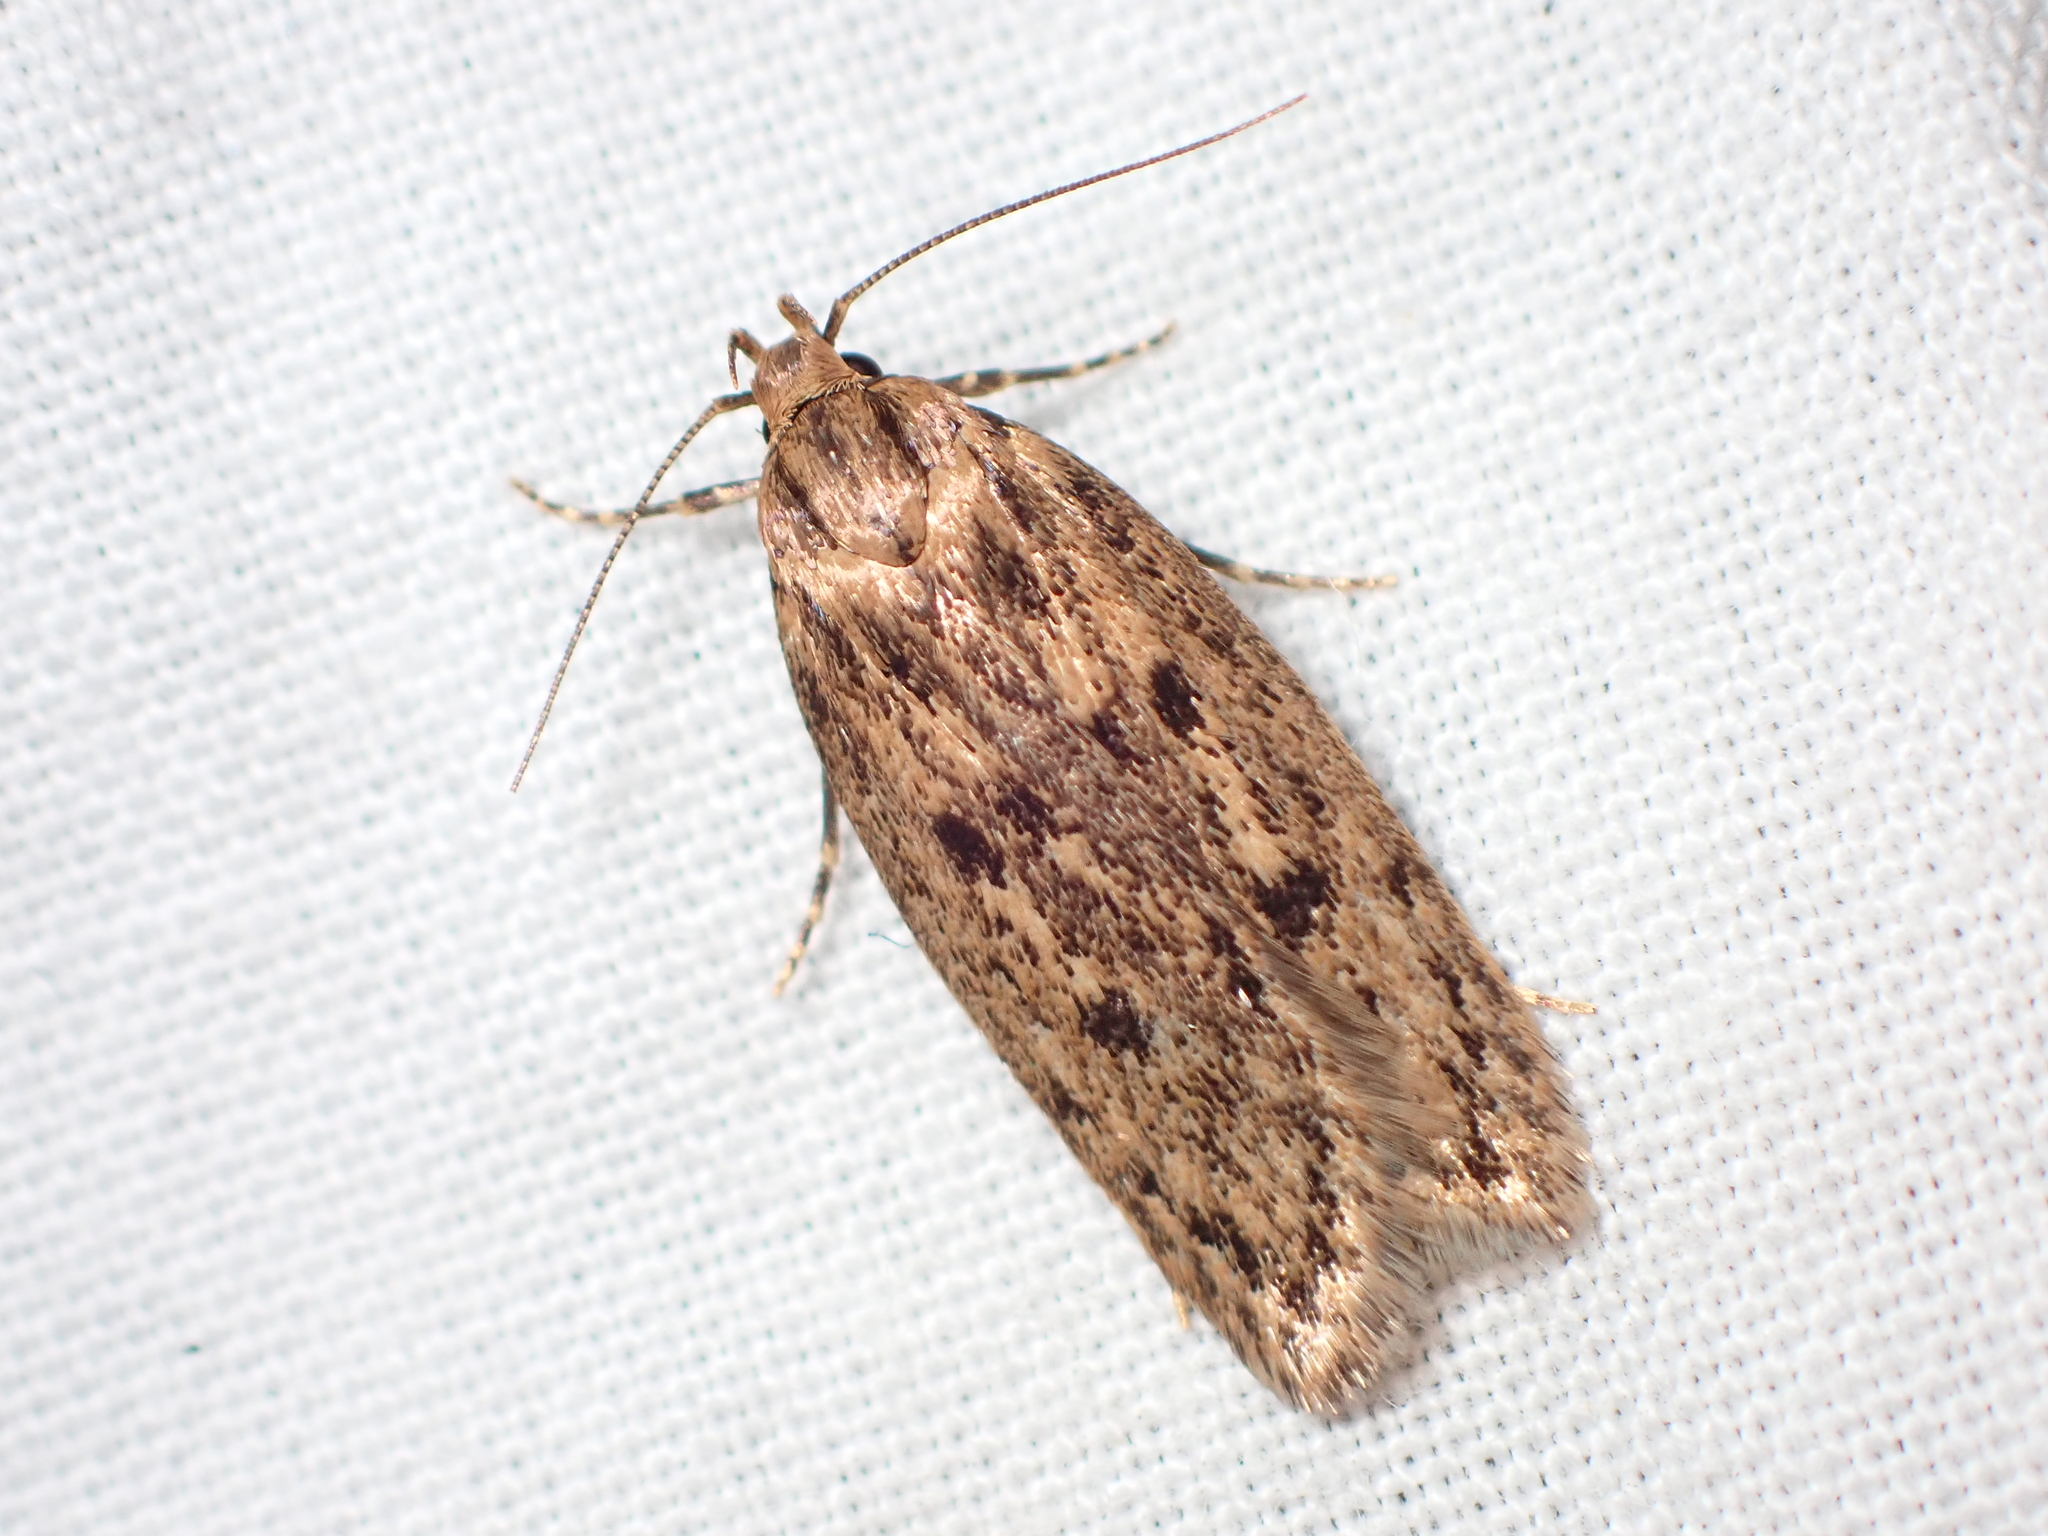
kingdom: Animalia
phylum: Arthropoda
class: Insecta
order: Lepidoptera
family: Oecophoridae
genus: Hofmannophila
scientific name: Hofmannophila pseudospretella
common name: Brown house moth
